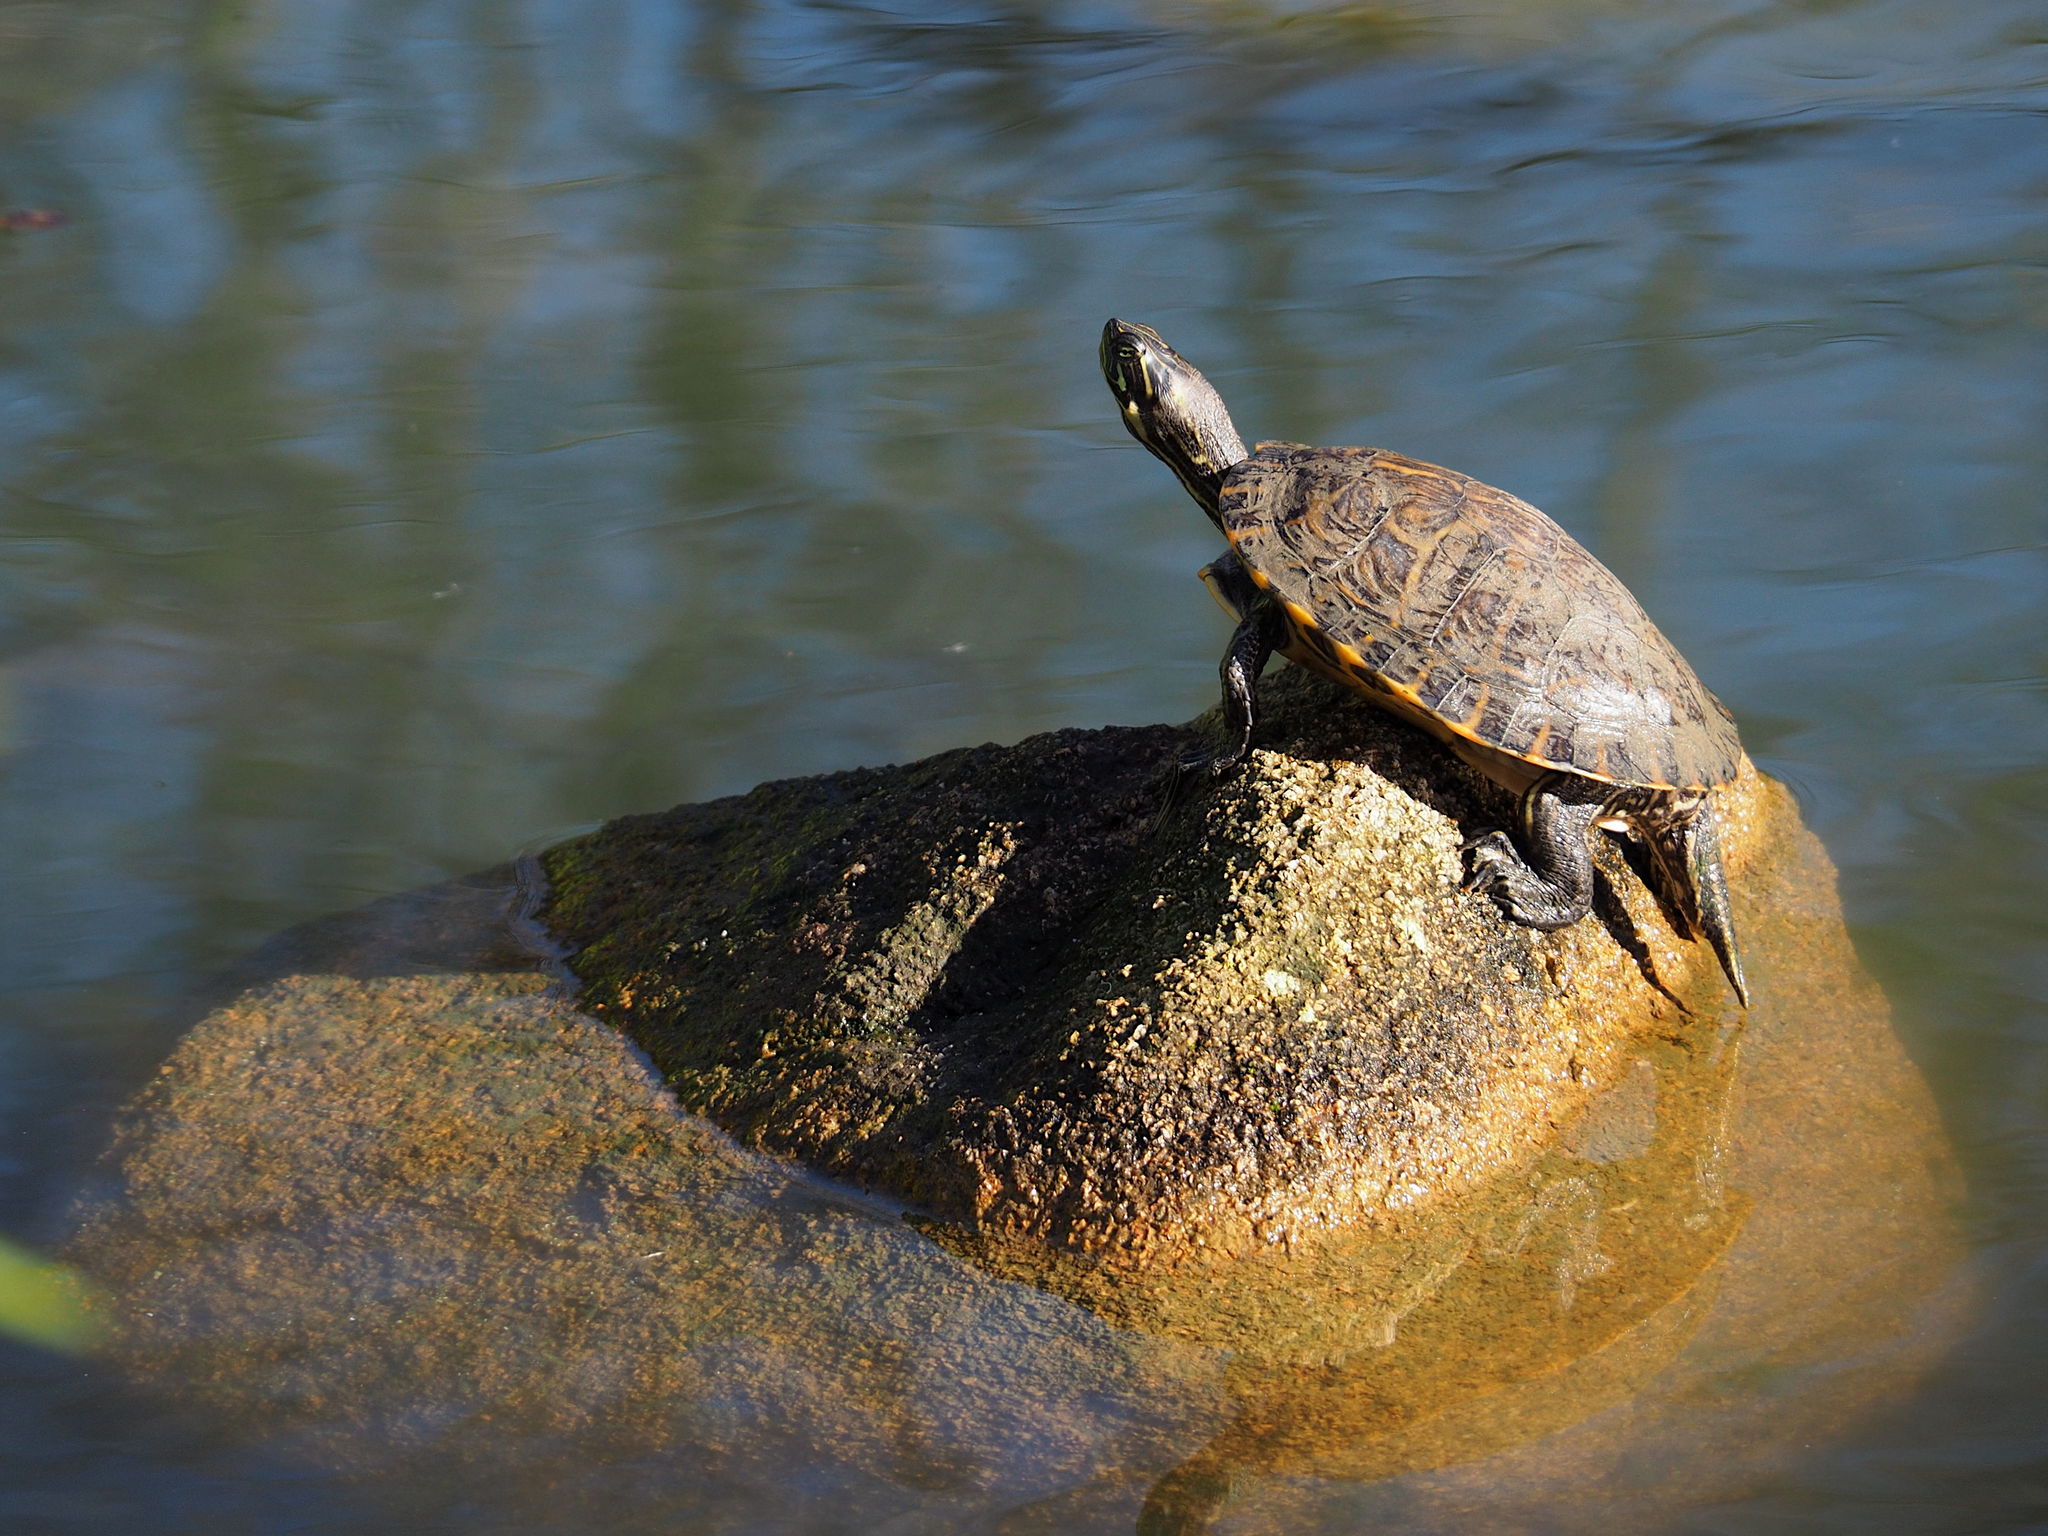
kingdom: Animalia
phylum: Chordata
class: Testudines
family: Emydidae
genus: Pseudemys
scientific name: Pseudemys concinna
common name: Eastern river cooter
